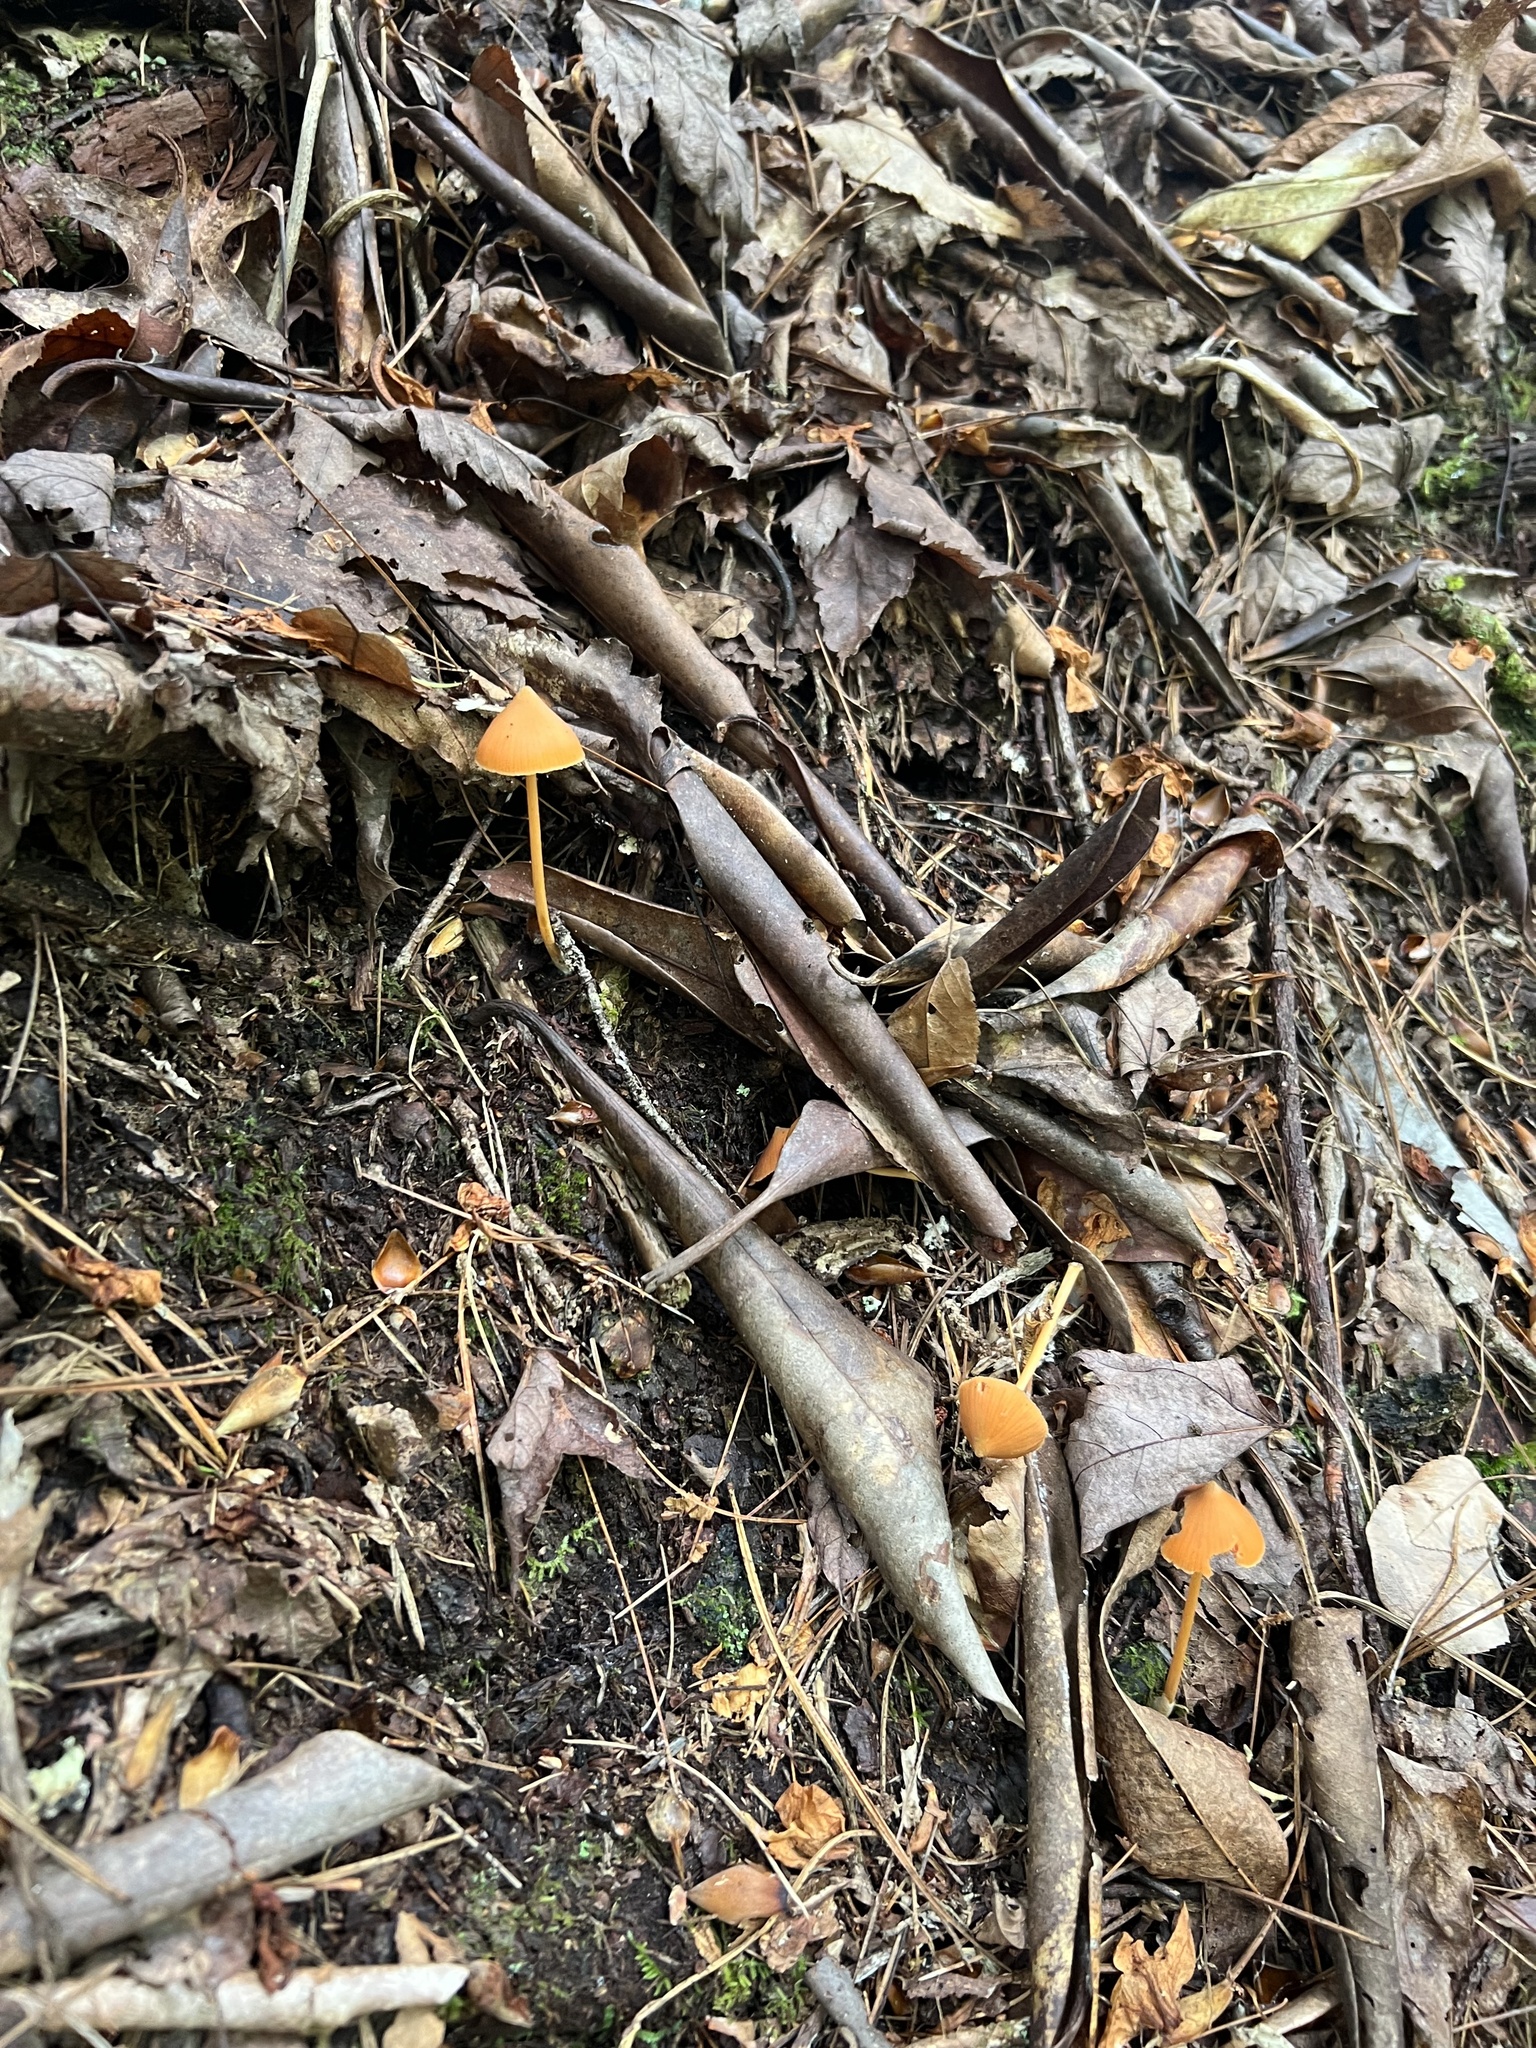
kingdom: Fungi
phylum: Basidiomycota
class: Agaricomycetes
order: Agaricales
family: Entolomataceae
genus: Entoloma
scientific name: Entoloma quadratum
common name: Salmon pinkgill
